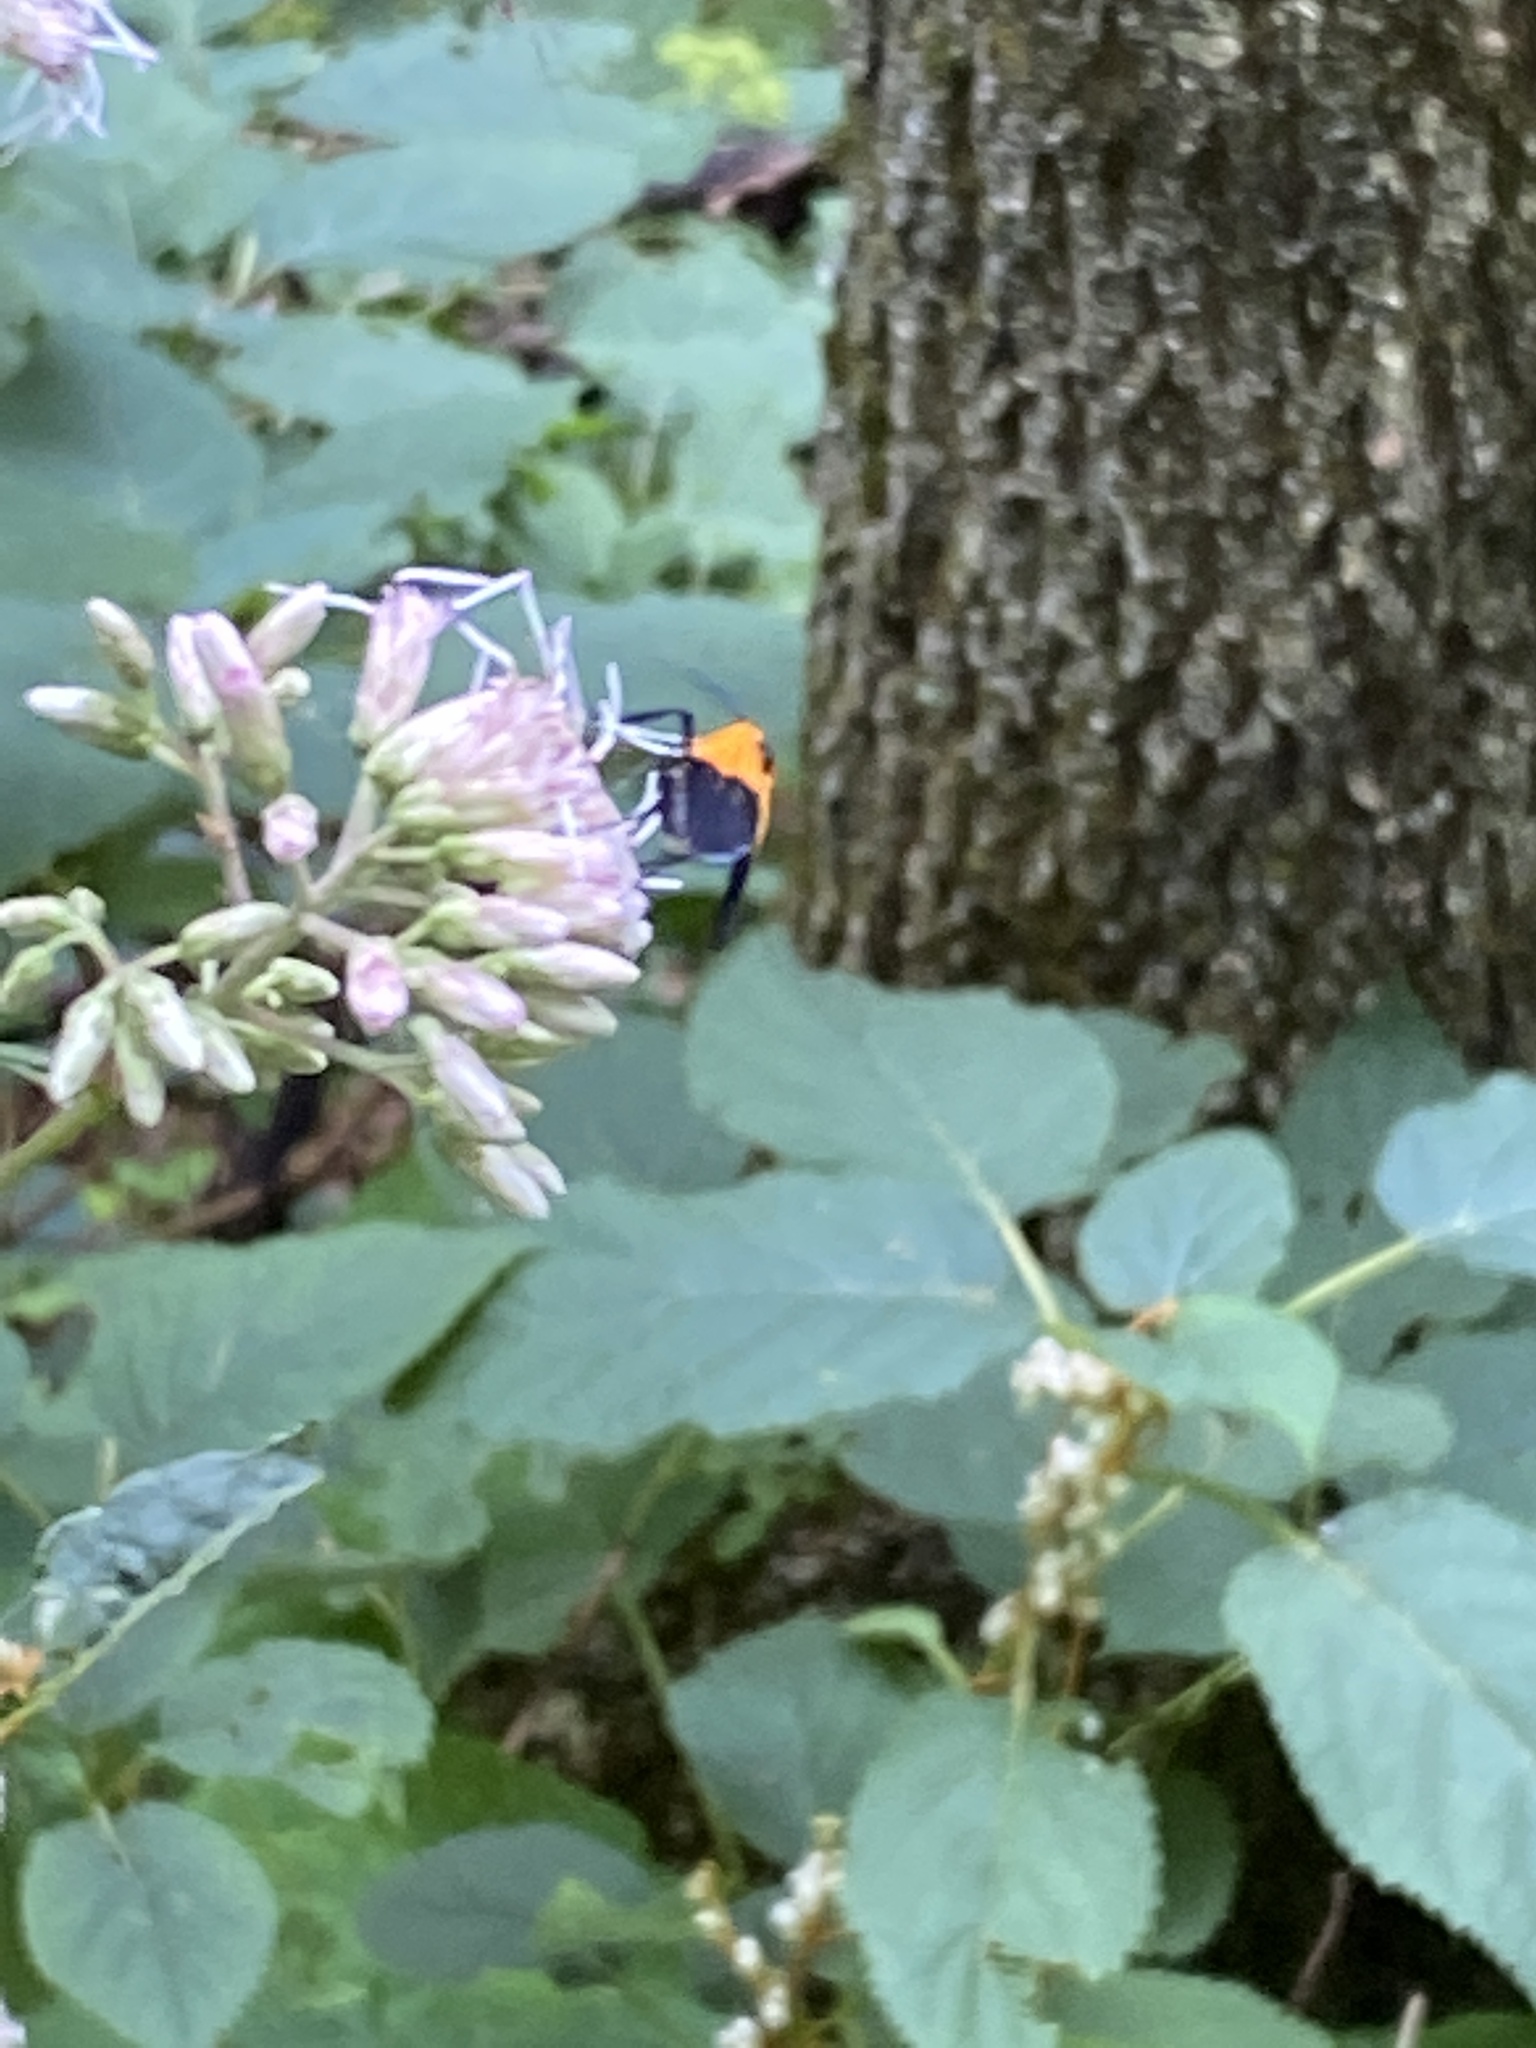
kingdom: Animalia
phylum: Arthropoda
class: Insecta
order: Lepidoptera
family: Erebidae
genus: Lycomorpha
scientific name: Lycomorpha pholus
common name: Black-and-yellow lichen moth
